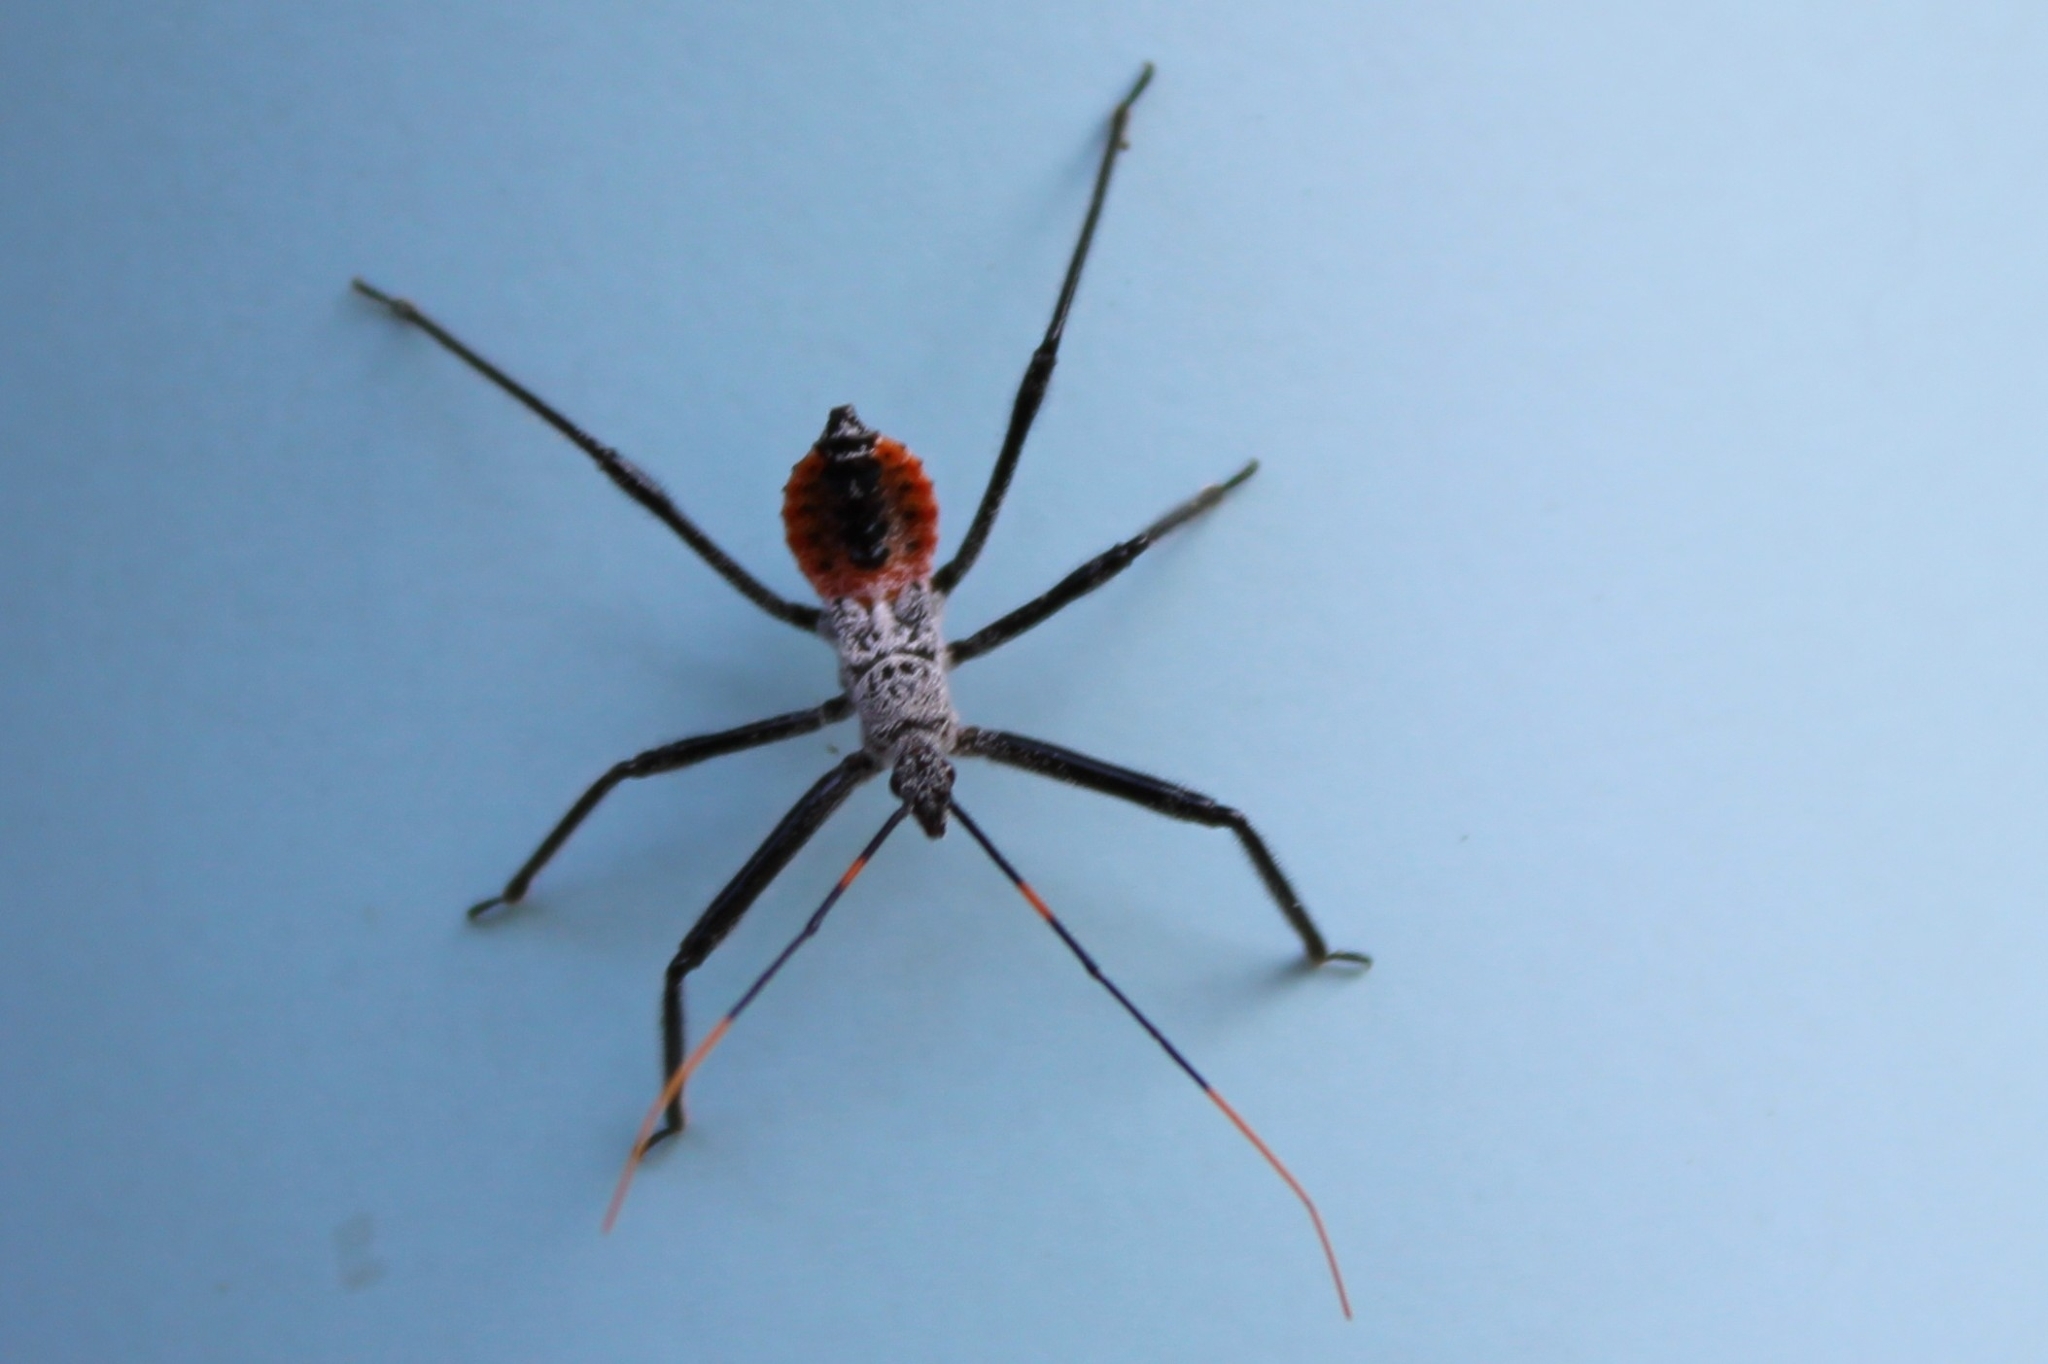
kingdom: Animalia
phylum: Arthropoda
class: Insecta
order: Hemiptera
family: Reduviidae
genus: Arilus
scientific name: Arilus cristatus
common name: North american wheel bug
